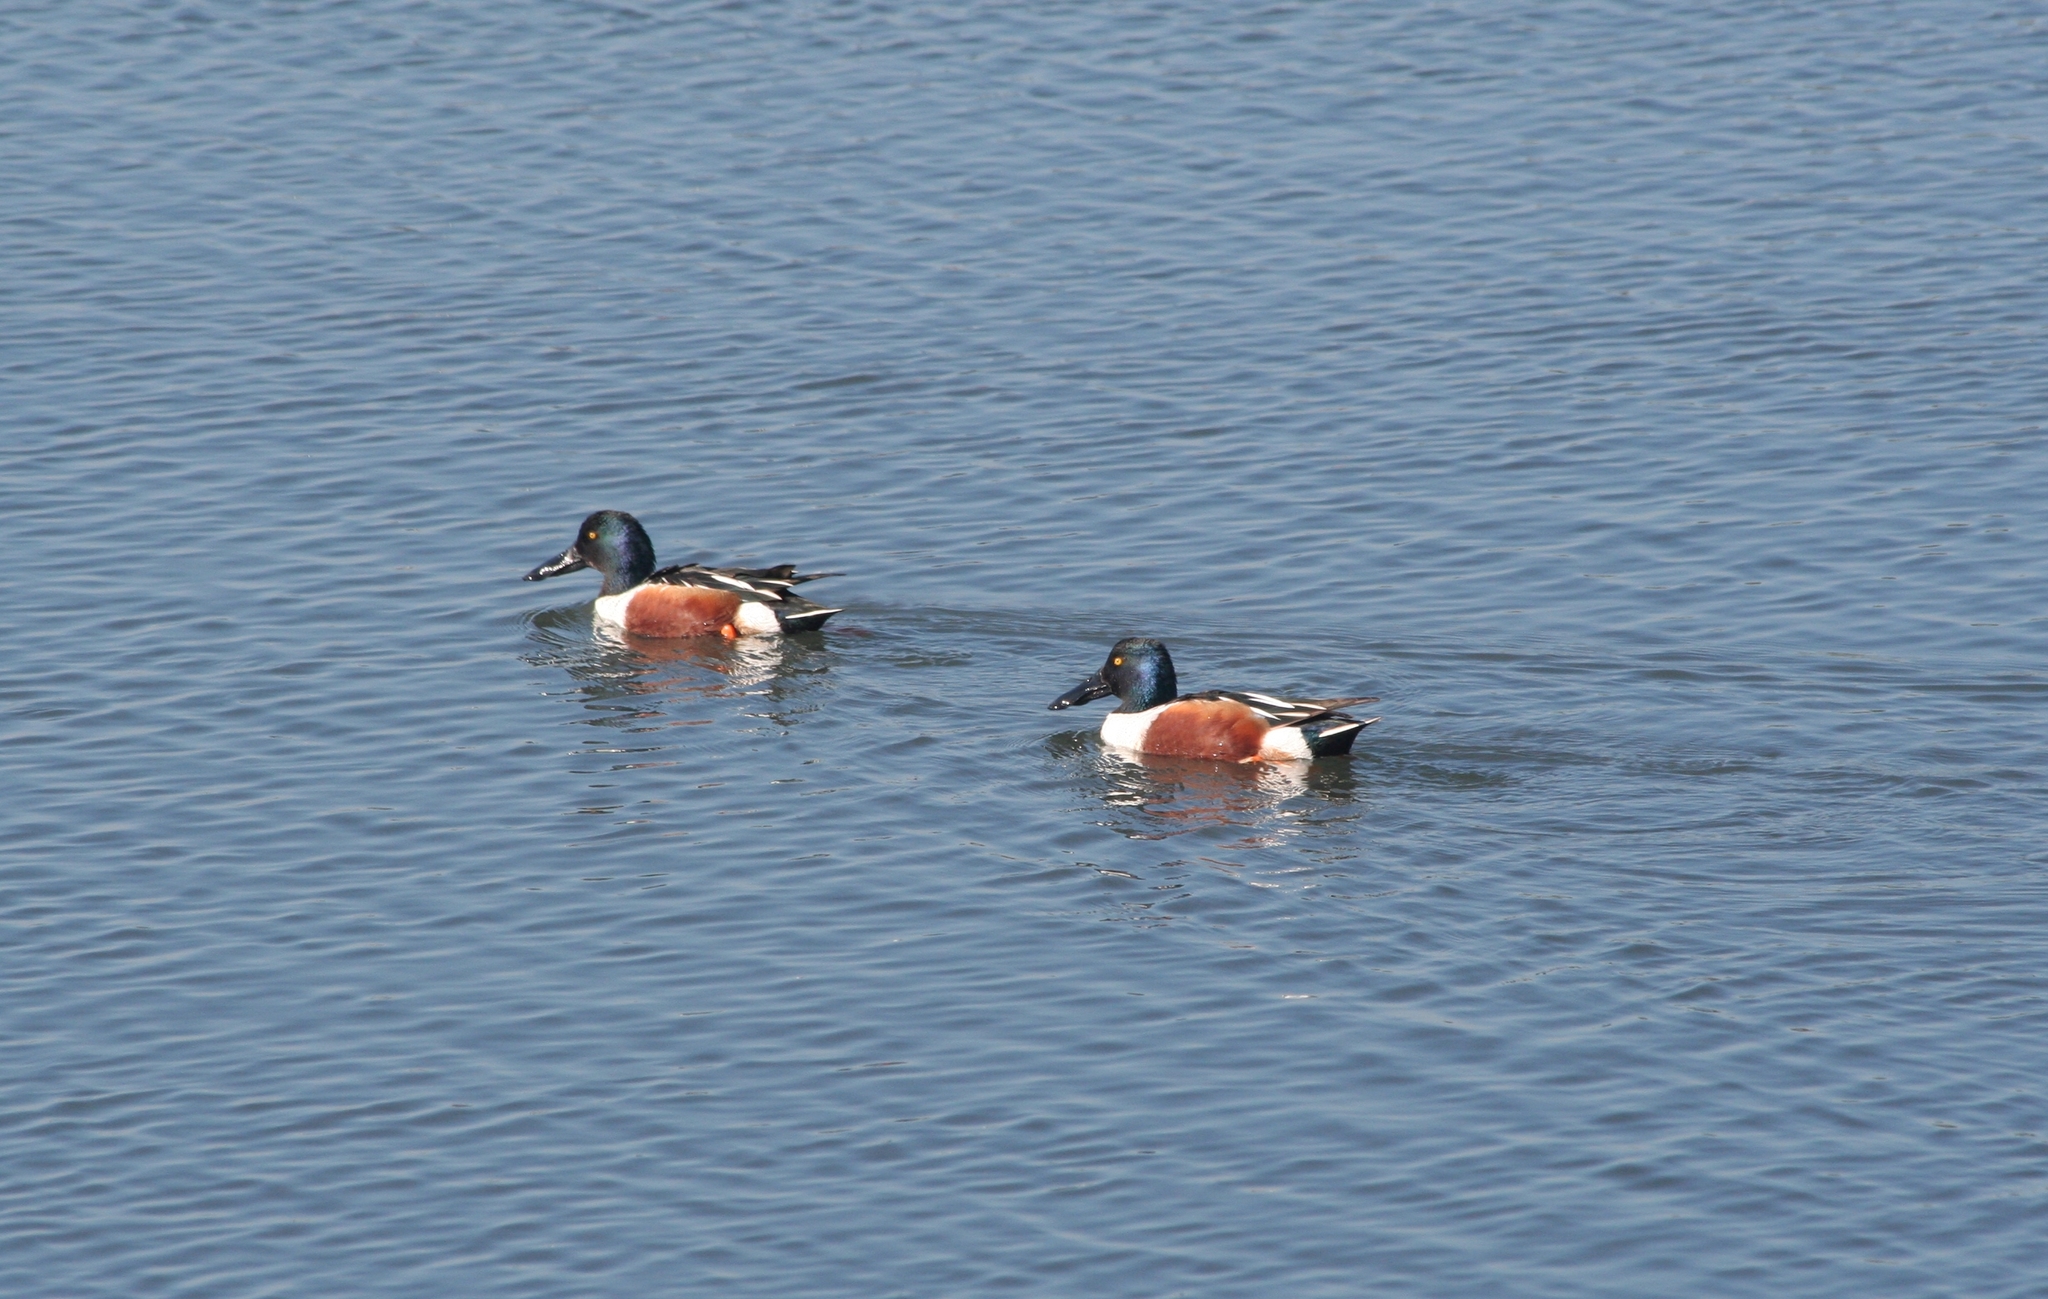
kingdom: Animalia
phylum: Chordata
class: Aves
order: Anseriformes
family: Anatidae
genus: Spatula
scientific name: Spatula clypeata
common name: Northern shoveler
